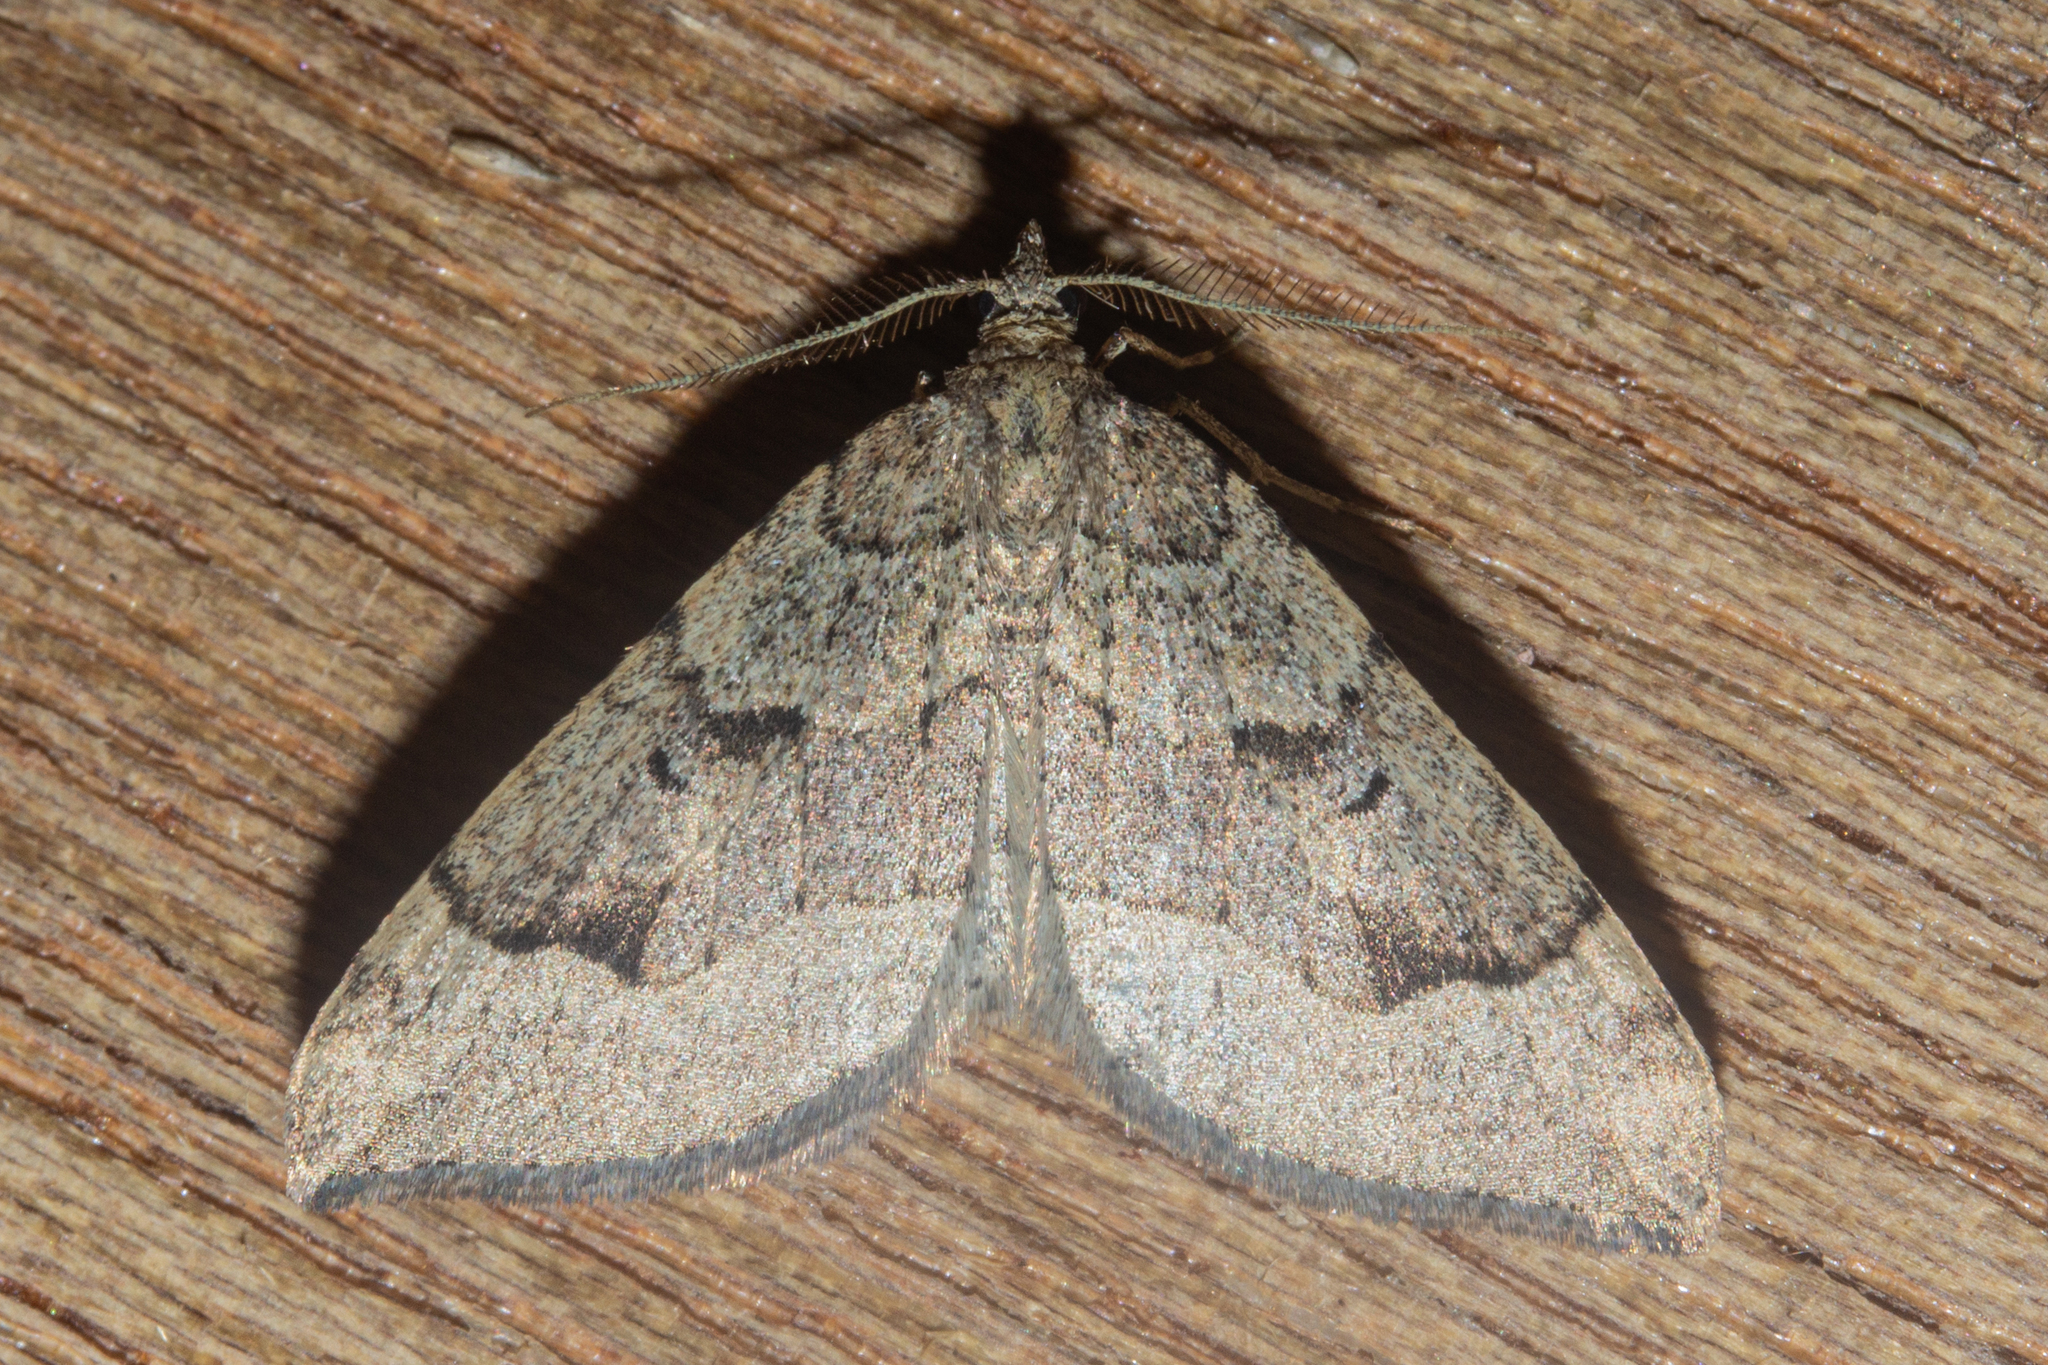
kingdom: Animalia
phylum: Arthropoda
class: Insecta
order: Lepidoptera
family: Geometridae
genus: Epyaxa
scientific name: Epyaxa rosearia
